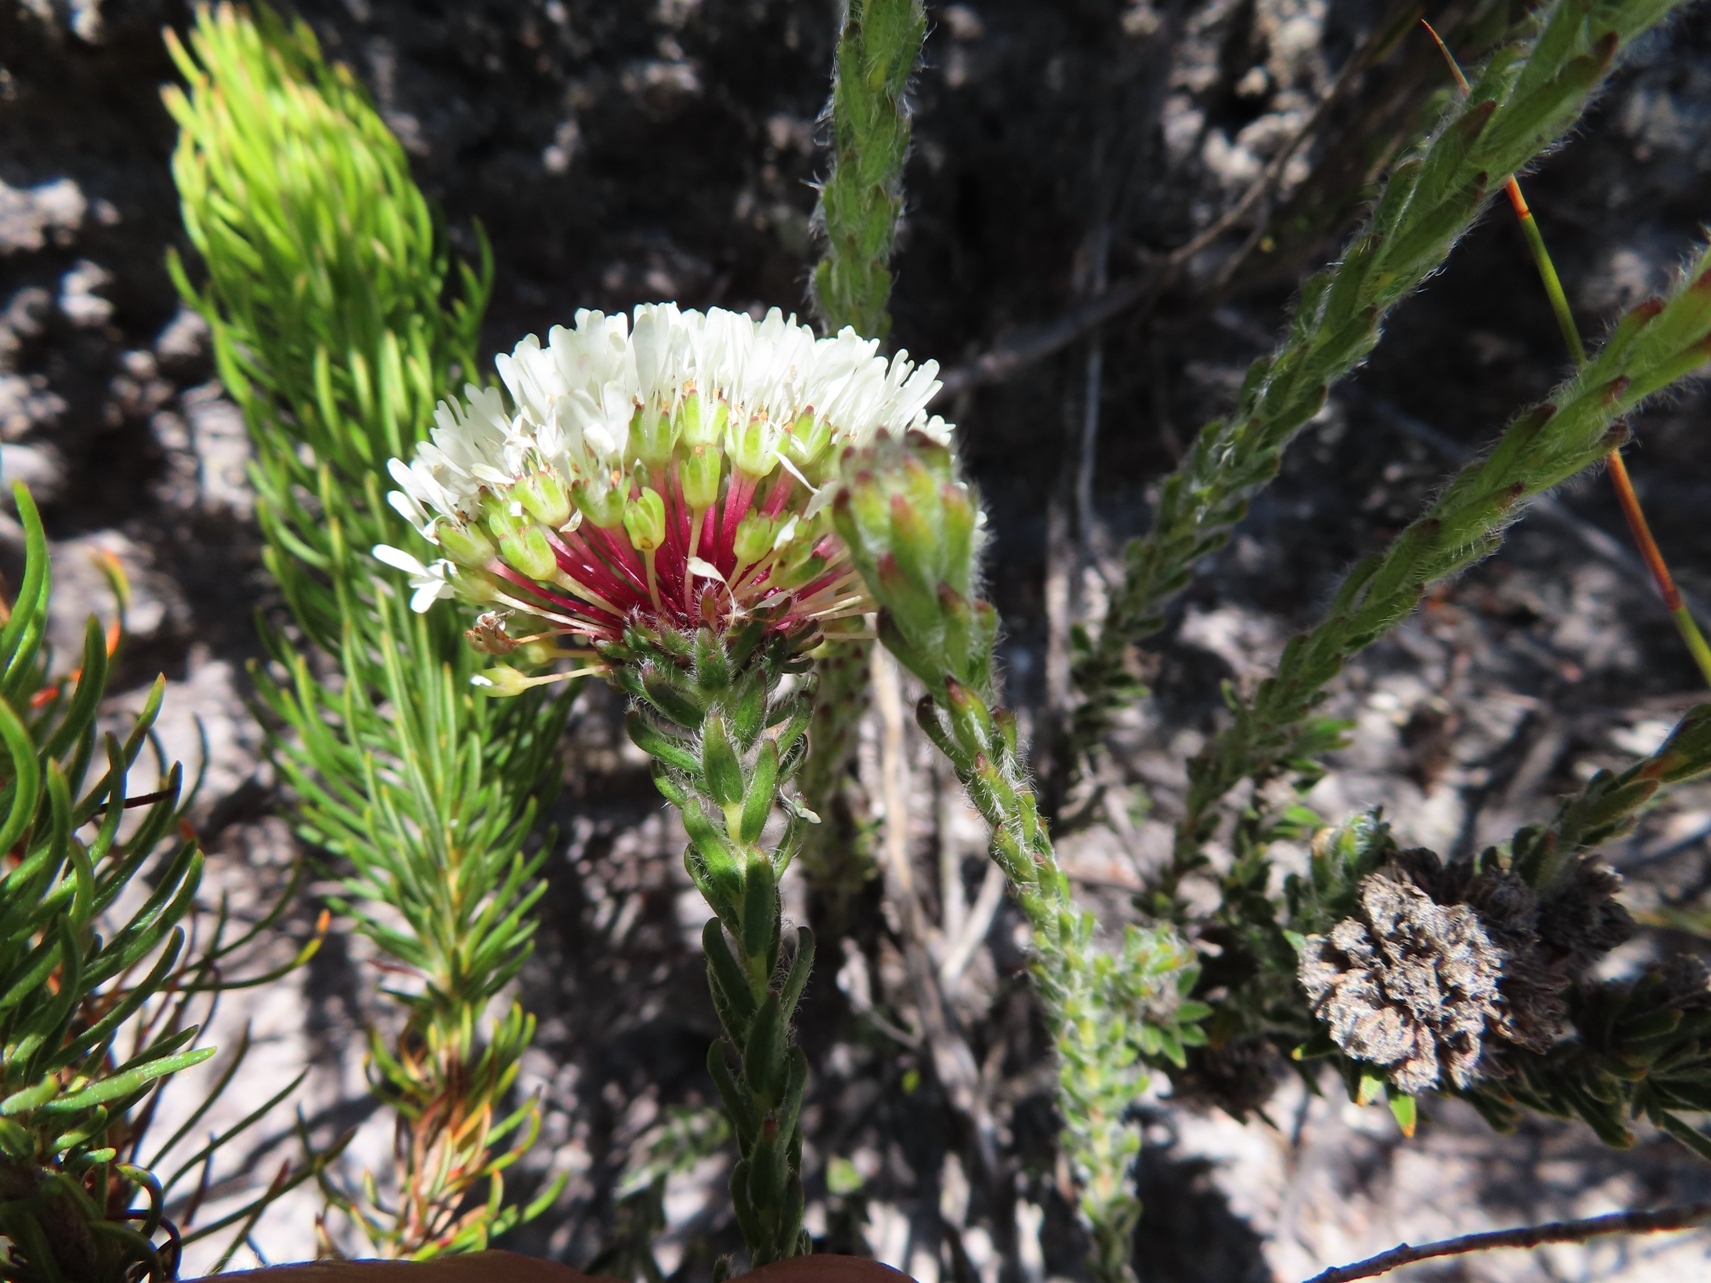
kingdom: Plantae
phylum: Tracheophyta
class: Magnoliopsida
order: Sapindales
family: Rutaceae
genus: Agathosma
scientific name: Agathosma bifida
